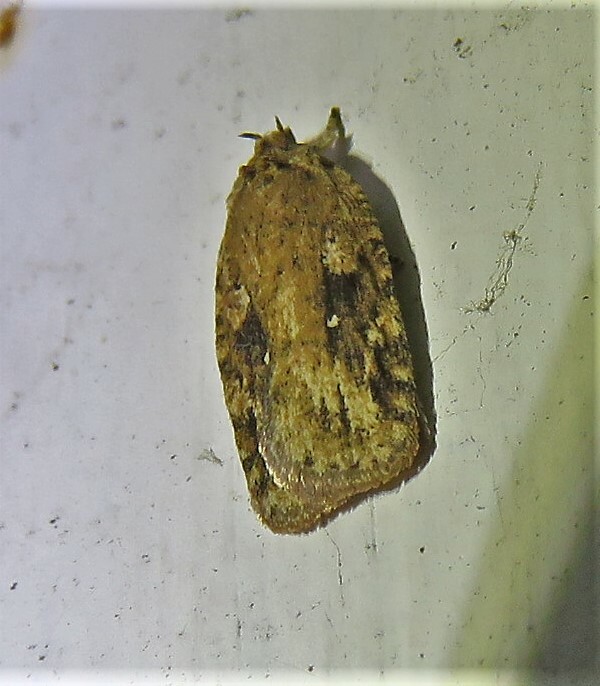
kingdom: Animalia
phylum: Arthropoda
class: Insecta
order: Lepidoptera
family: Depressariidae
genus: Agonopterix
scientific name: Agonopterix pulvipennella
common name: Goldenrod leafffolder
